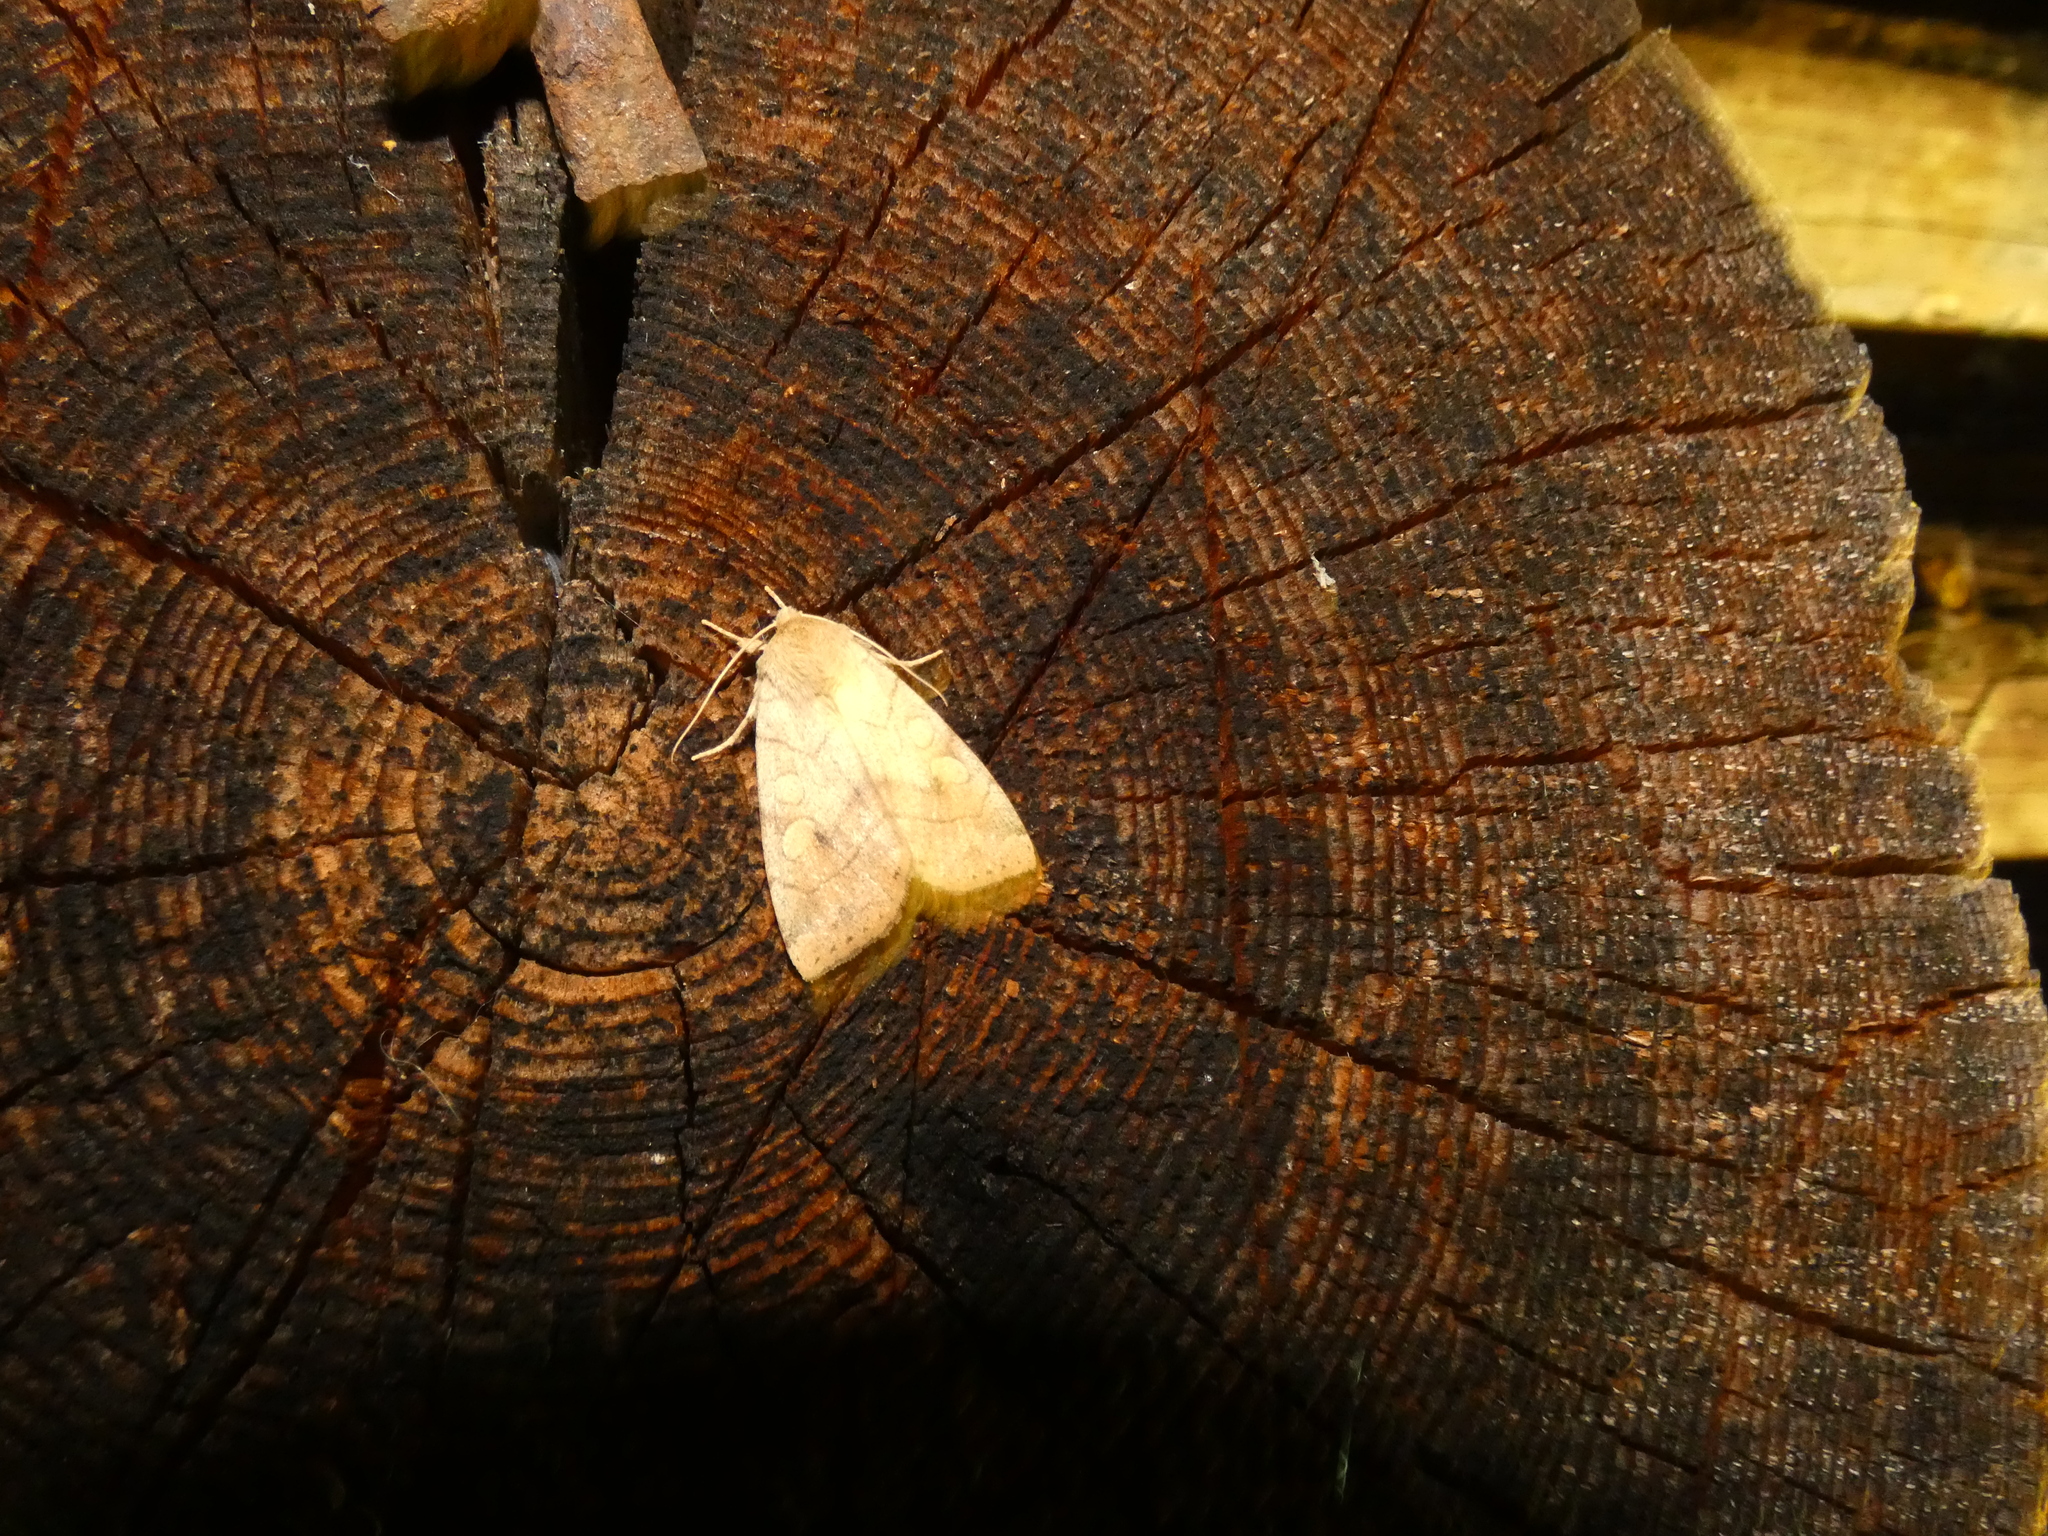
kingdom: Animalia
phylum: Arthropoda
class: Insecta
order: Lepidoptera
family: Noctuidae
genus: Enargia
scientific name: Enargia paleacea
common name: Angle-striped sallow
